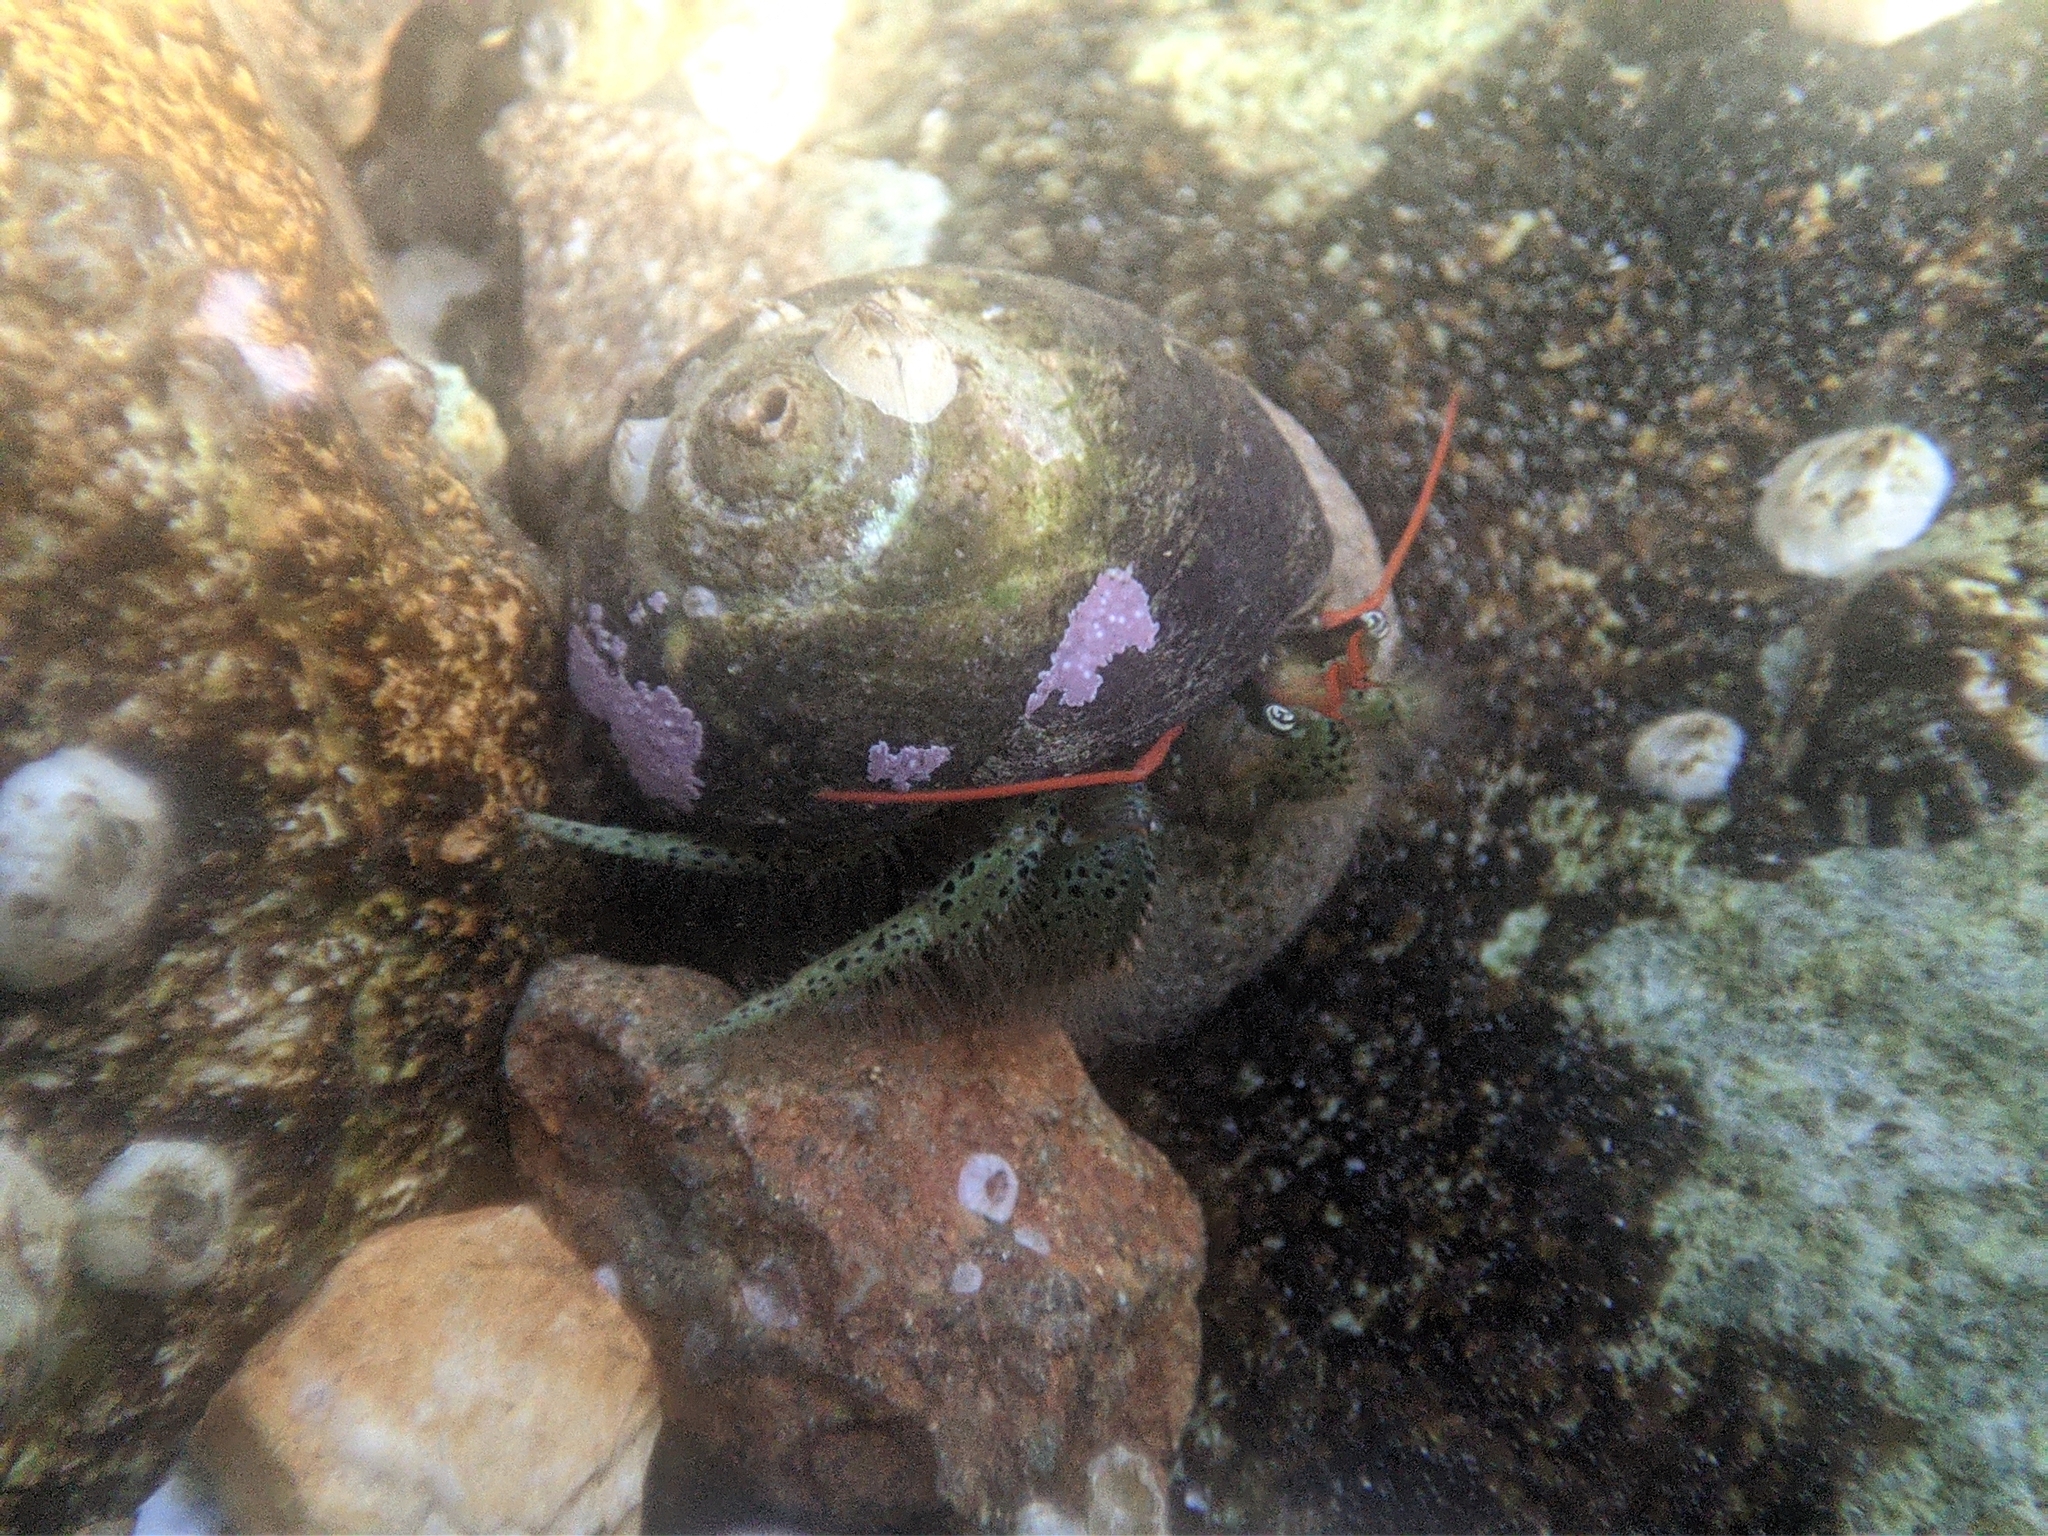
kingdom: Animalia
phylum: Arthropoda
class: Malacostraca
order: Decapoda
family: Paguridae
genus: Pagurus
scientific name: Pagurus lanuginosus
